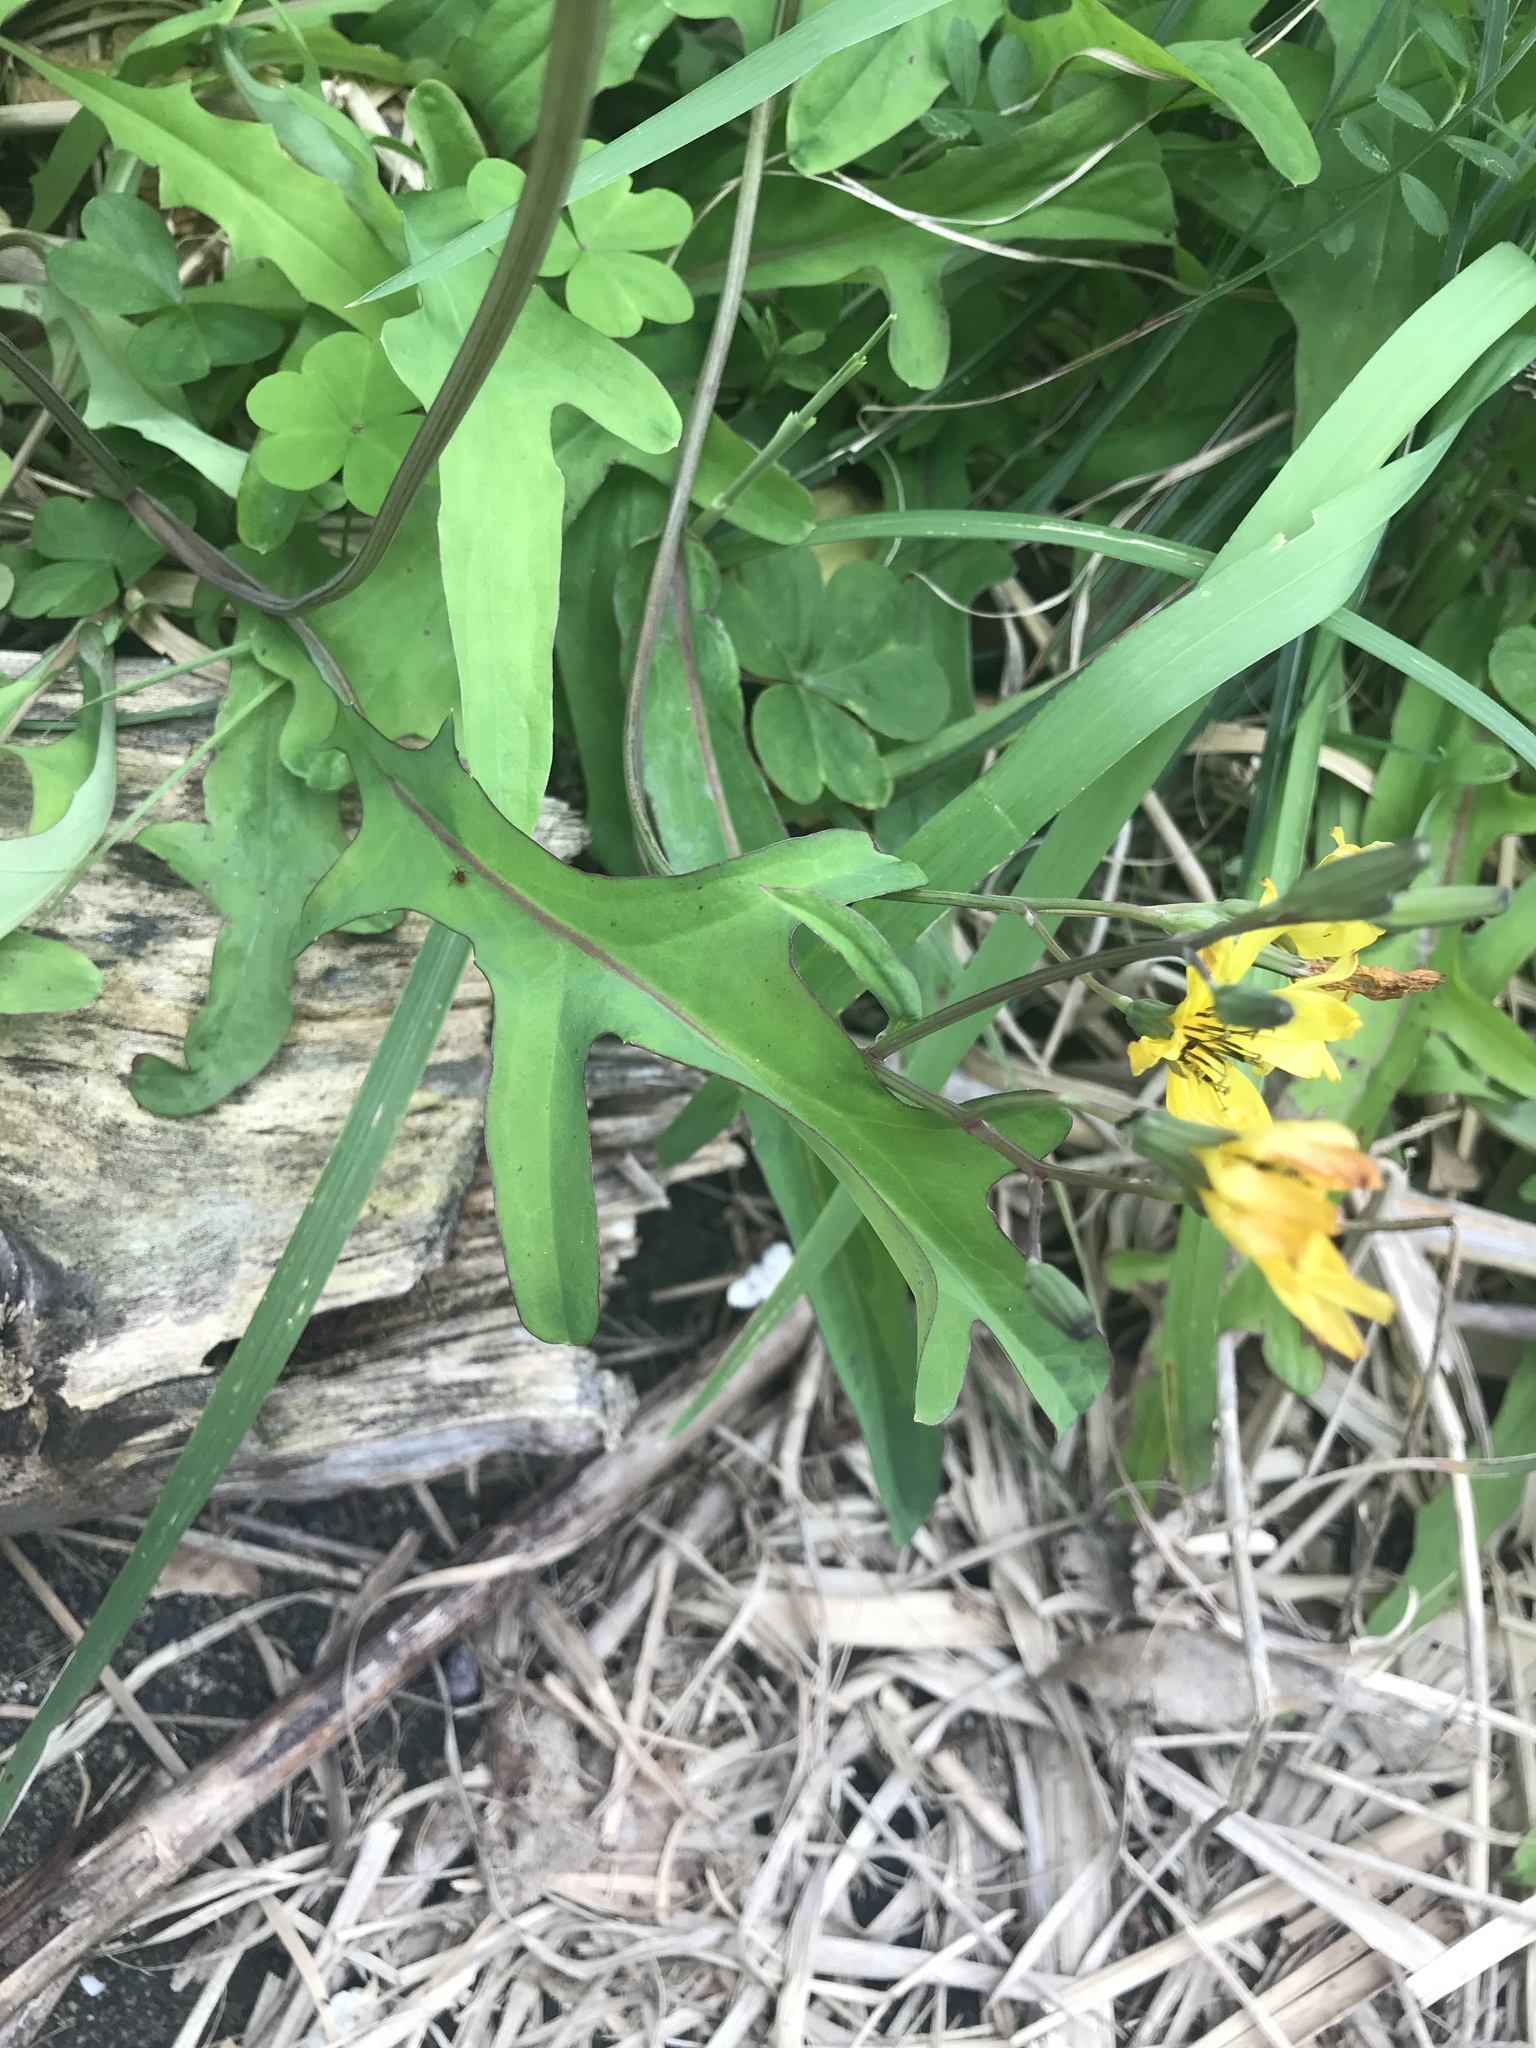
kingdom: Plantae
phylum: Tracheophyta
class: Magnoliopsida
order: Asterales
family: Asteraceae
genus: Ixeris
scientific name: Ixeris chinensis
